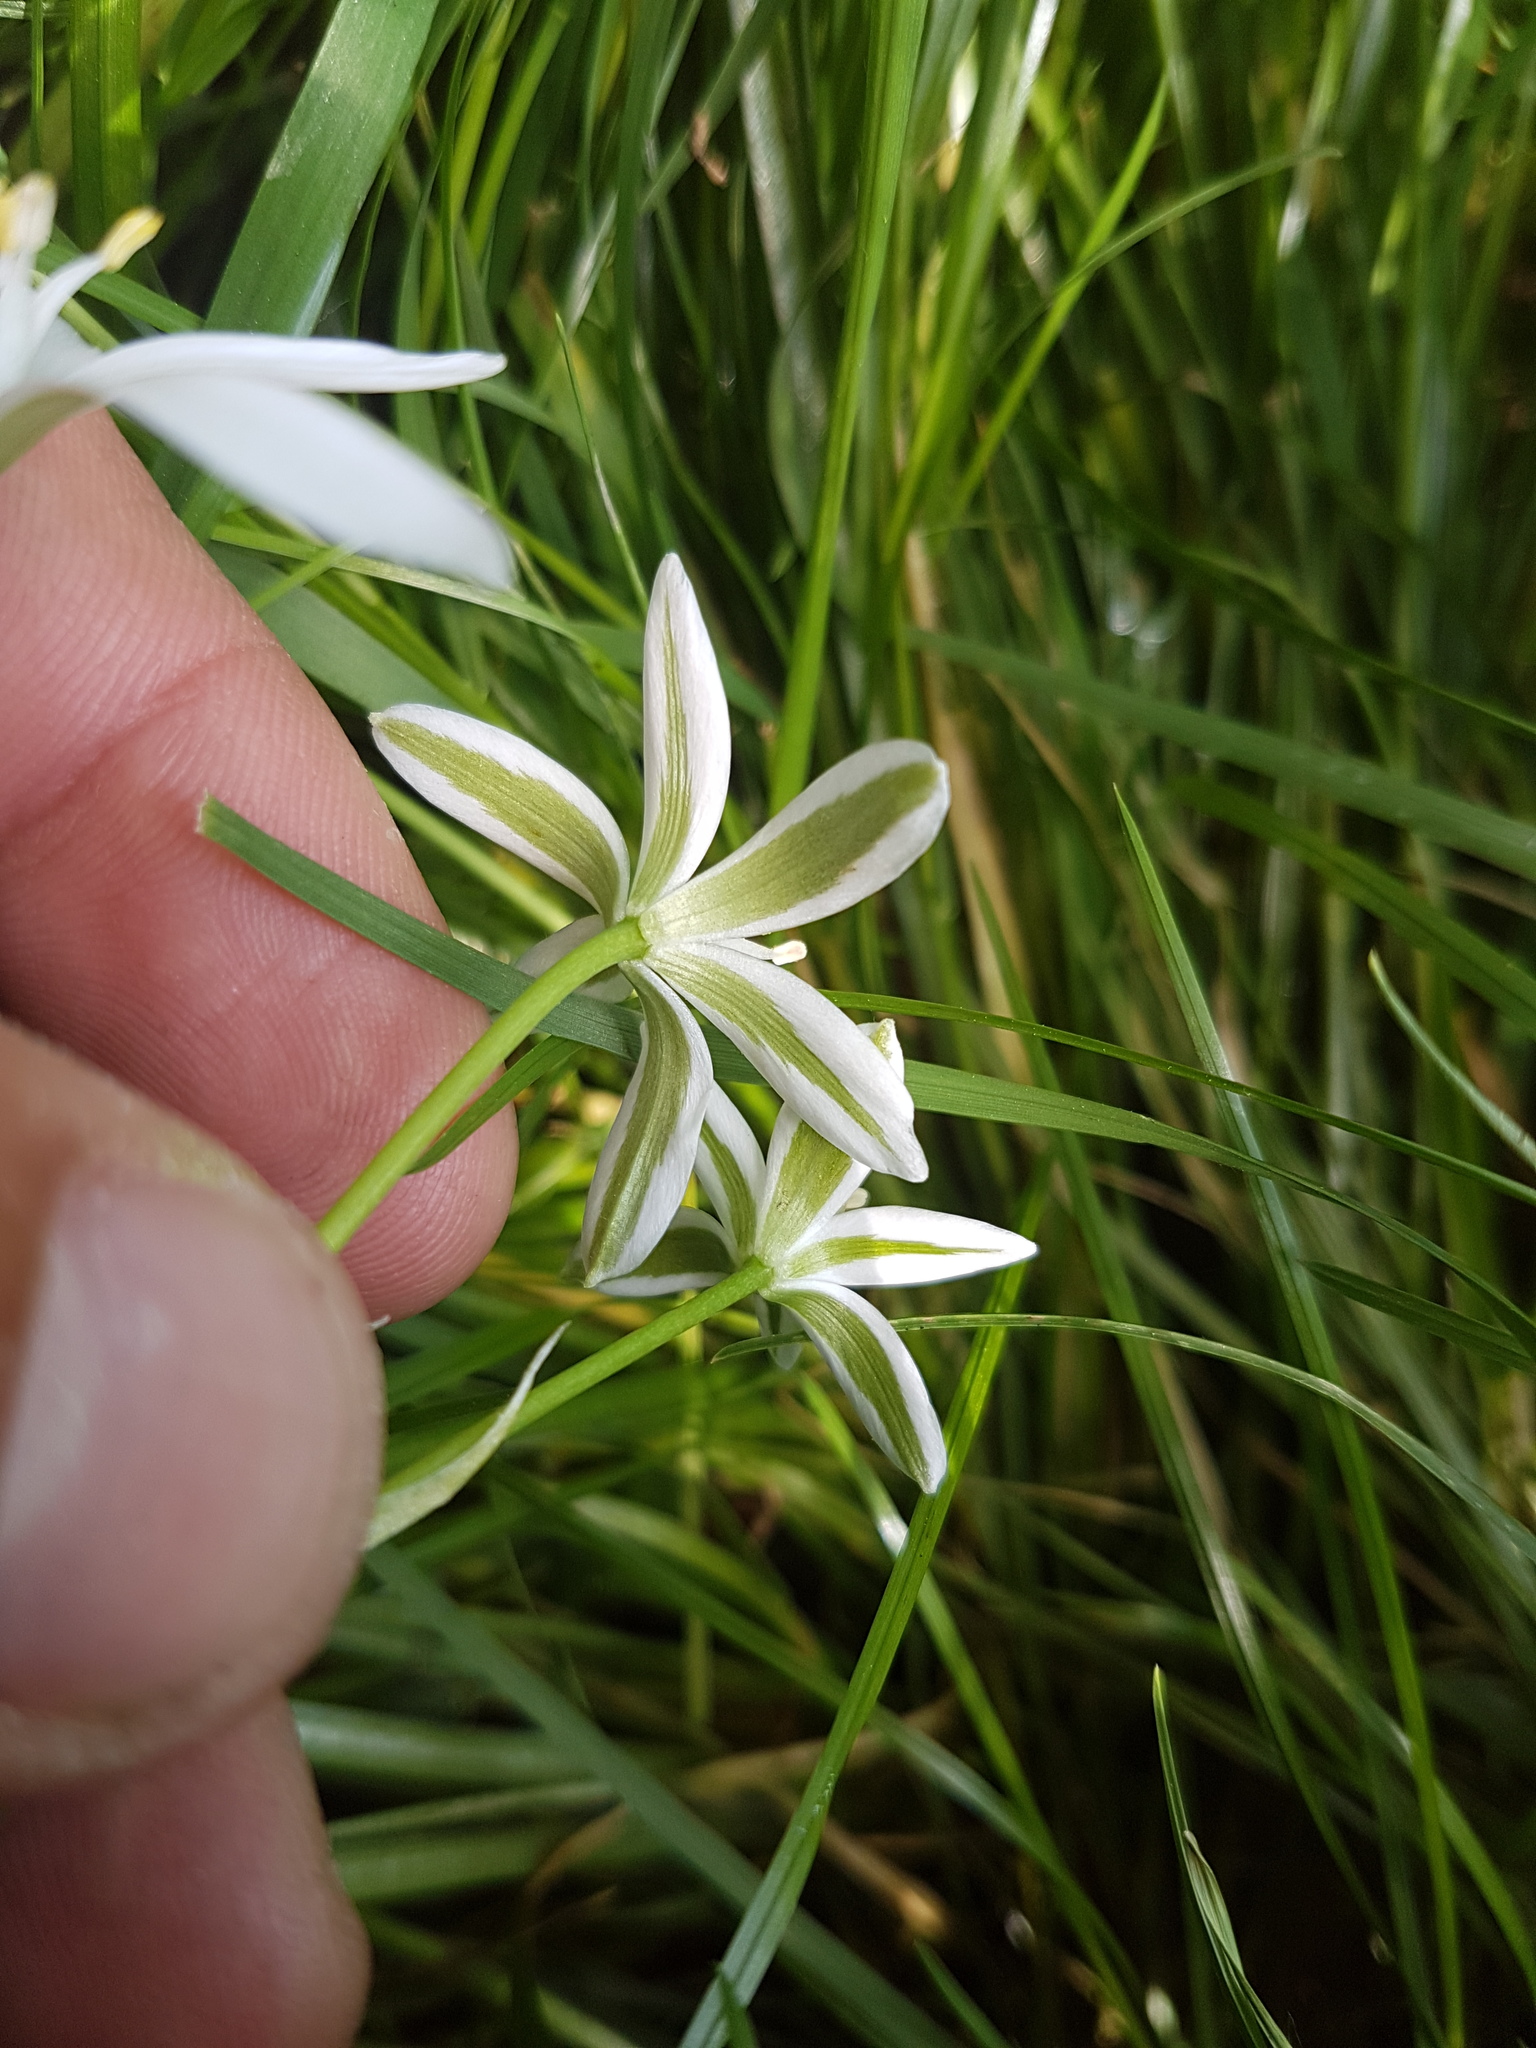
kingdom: Plantae
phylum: Tracheophyta
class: Liliopsida
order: Asparagales
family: Asparagaceae
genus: Ornithogalum
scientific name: Ornithogalum umbellatum
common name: Garden star-of-bethlehem
